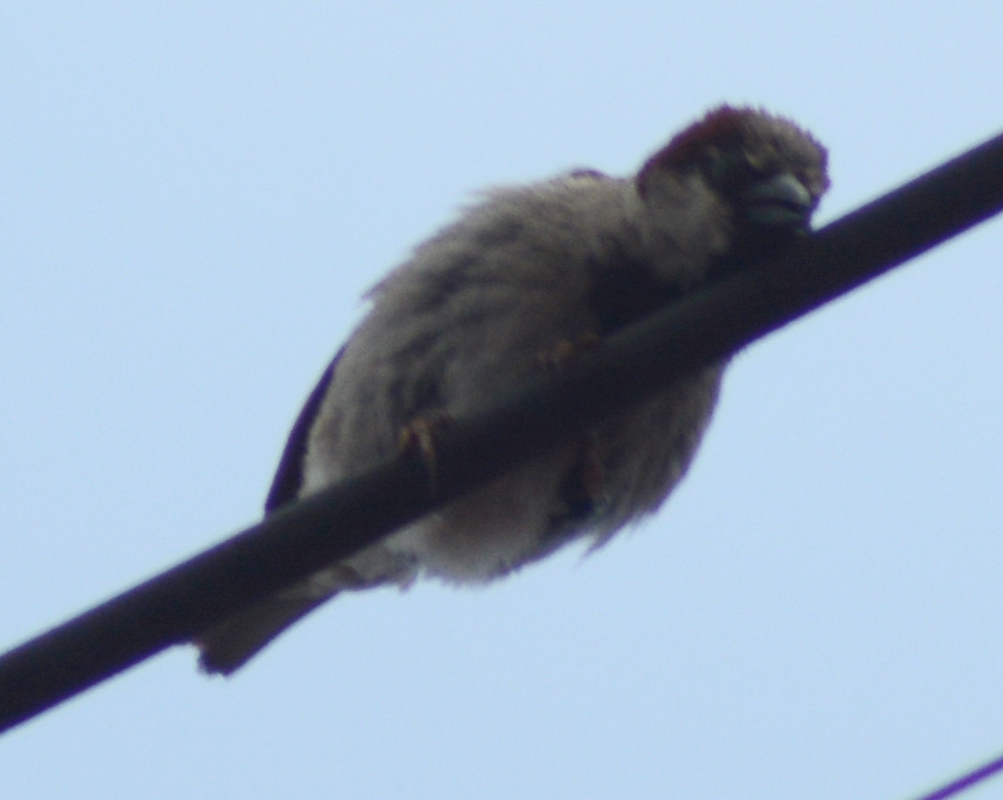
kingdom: Animalia
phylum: Chordata
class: Aves
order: Passeriformes
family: Passeridae
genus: Passer
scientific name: Passer domesticus
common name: House sparrow
